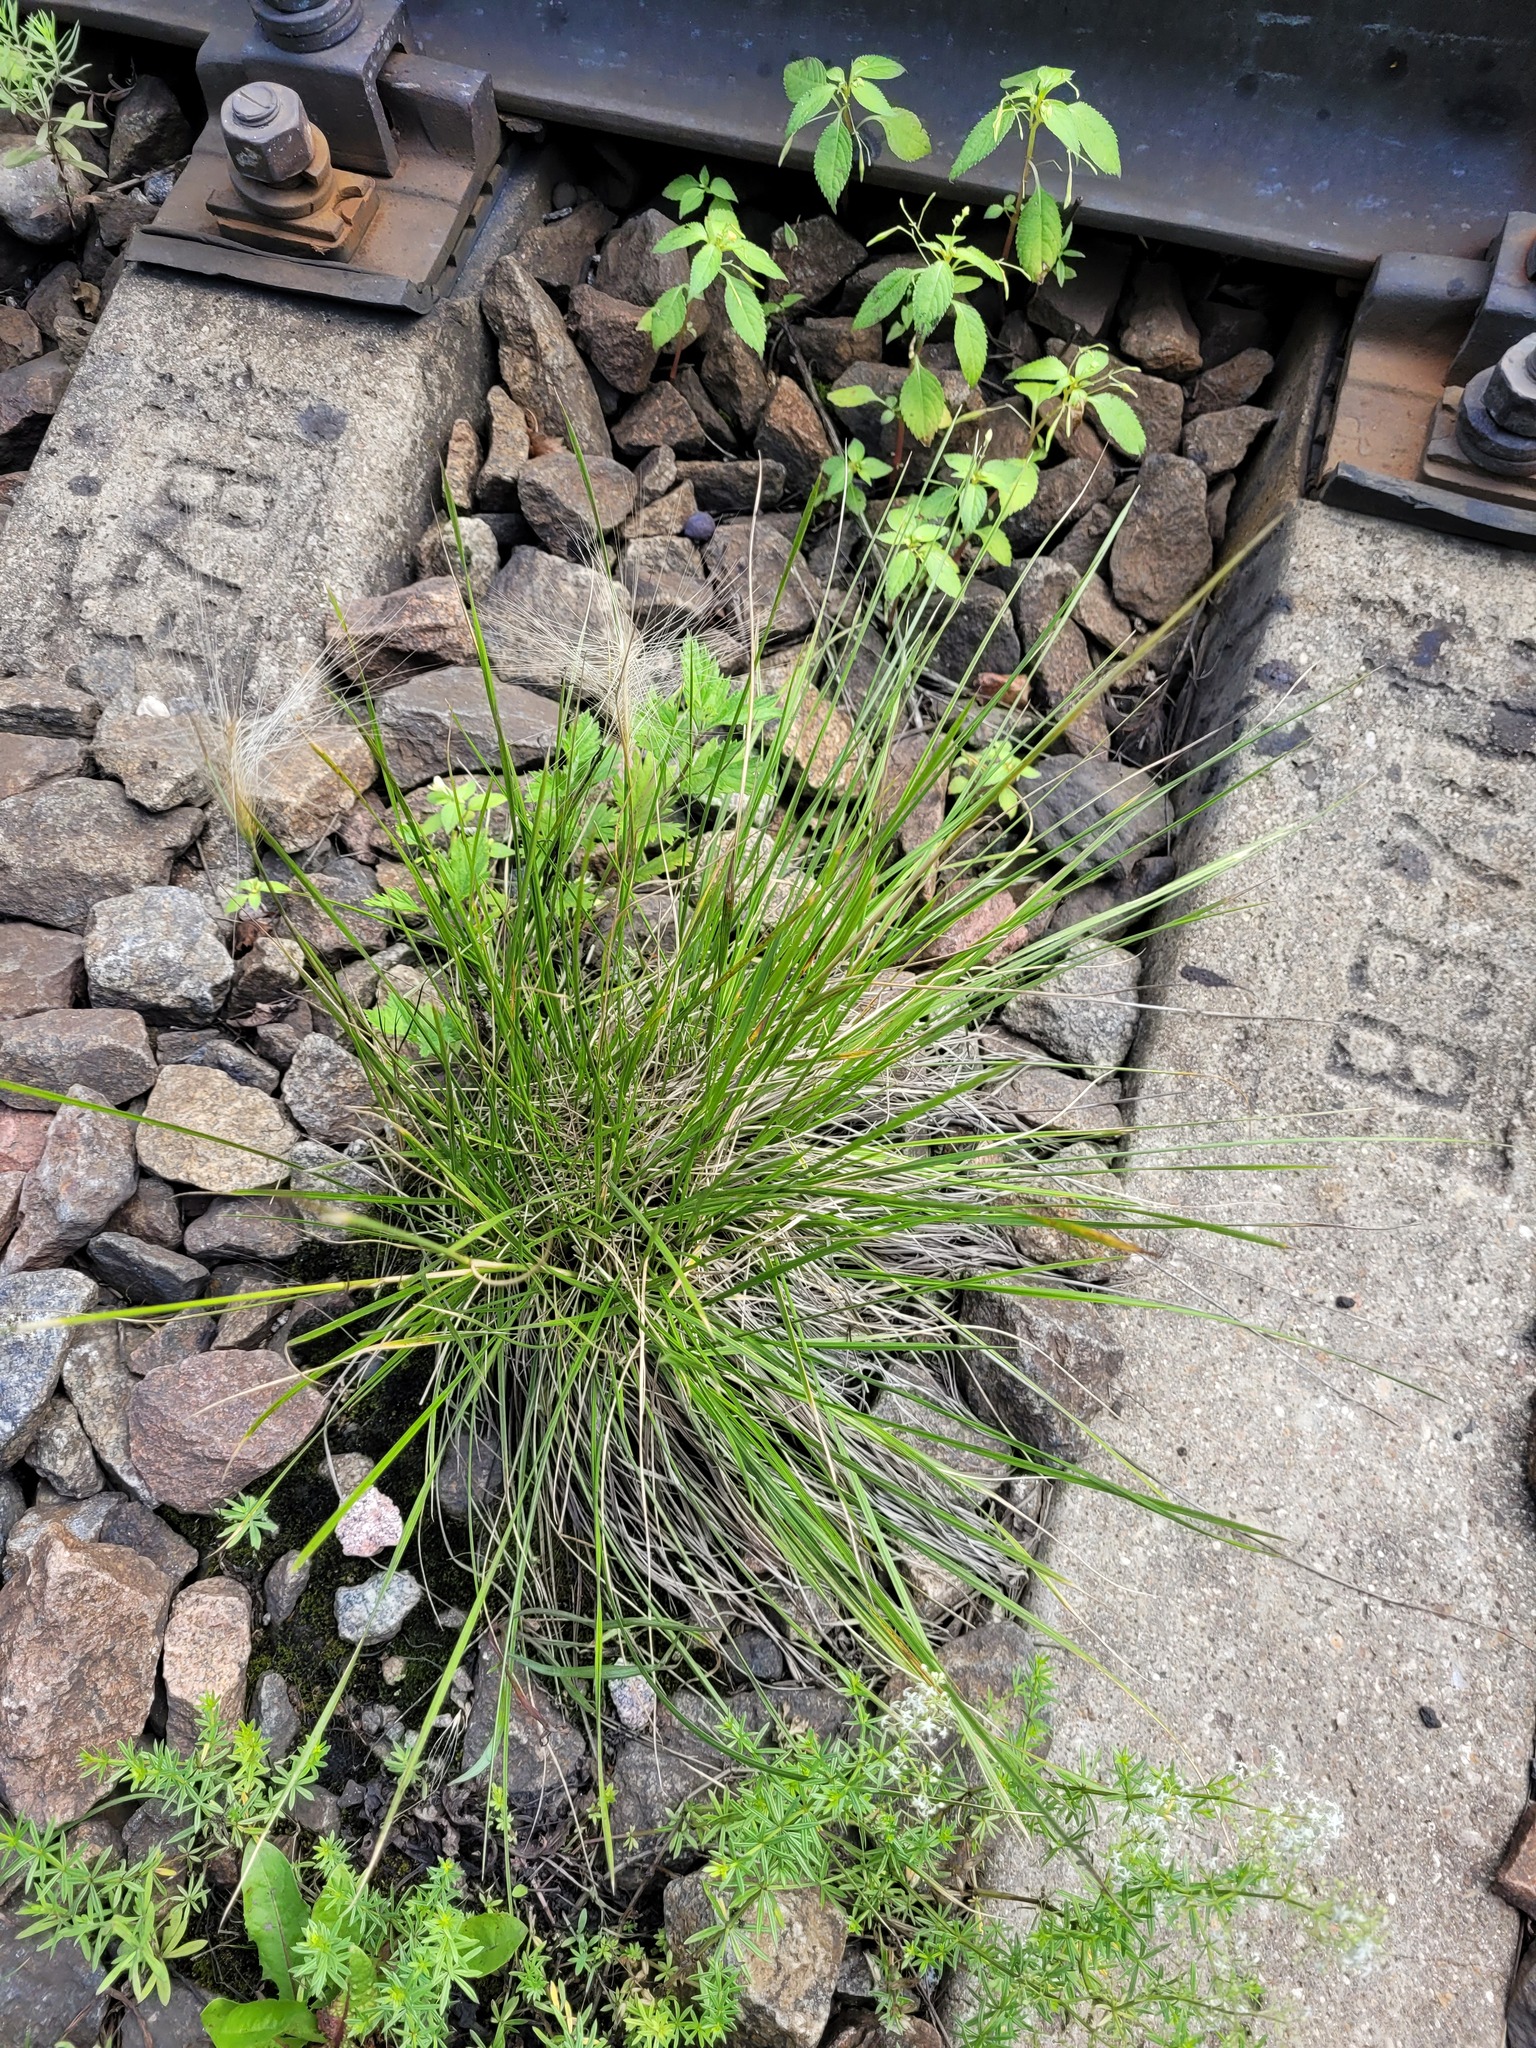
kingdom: Plantae
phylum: Tracheophyta
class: Liliopsida
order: Poales
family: Poaceae
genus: Deschampsia
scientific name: Deschampsia cespitosa
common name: Tufted hair-grass
